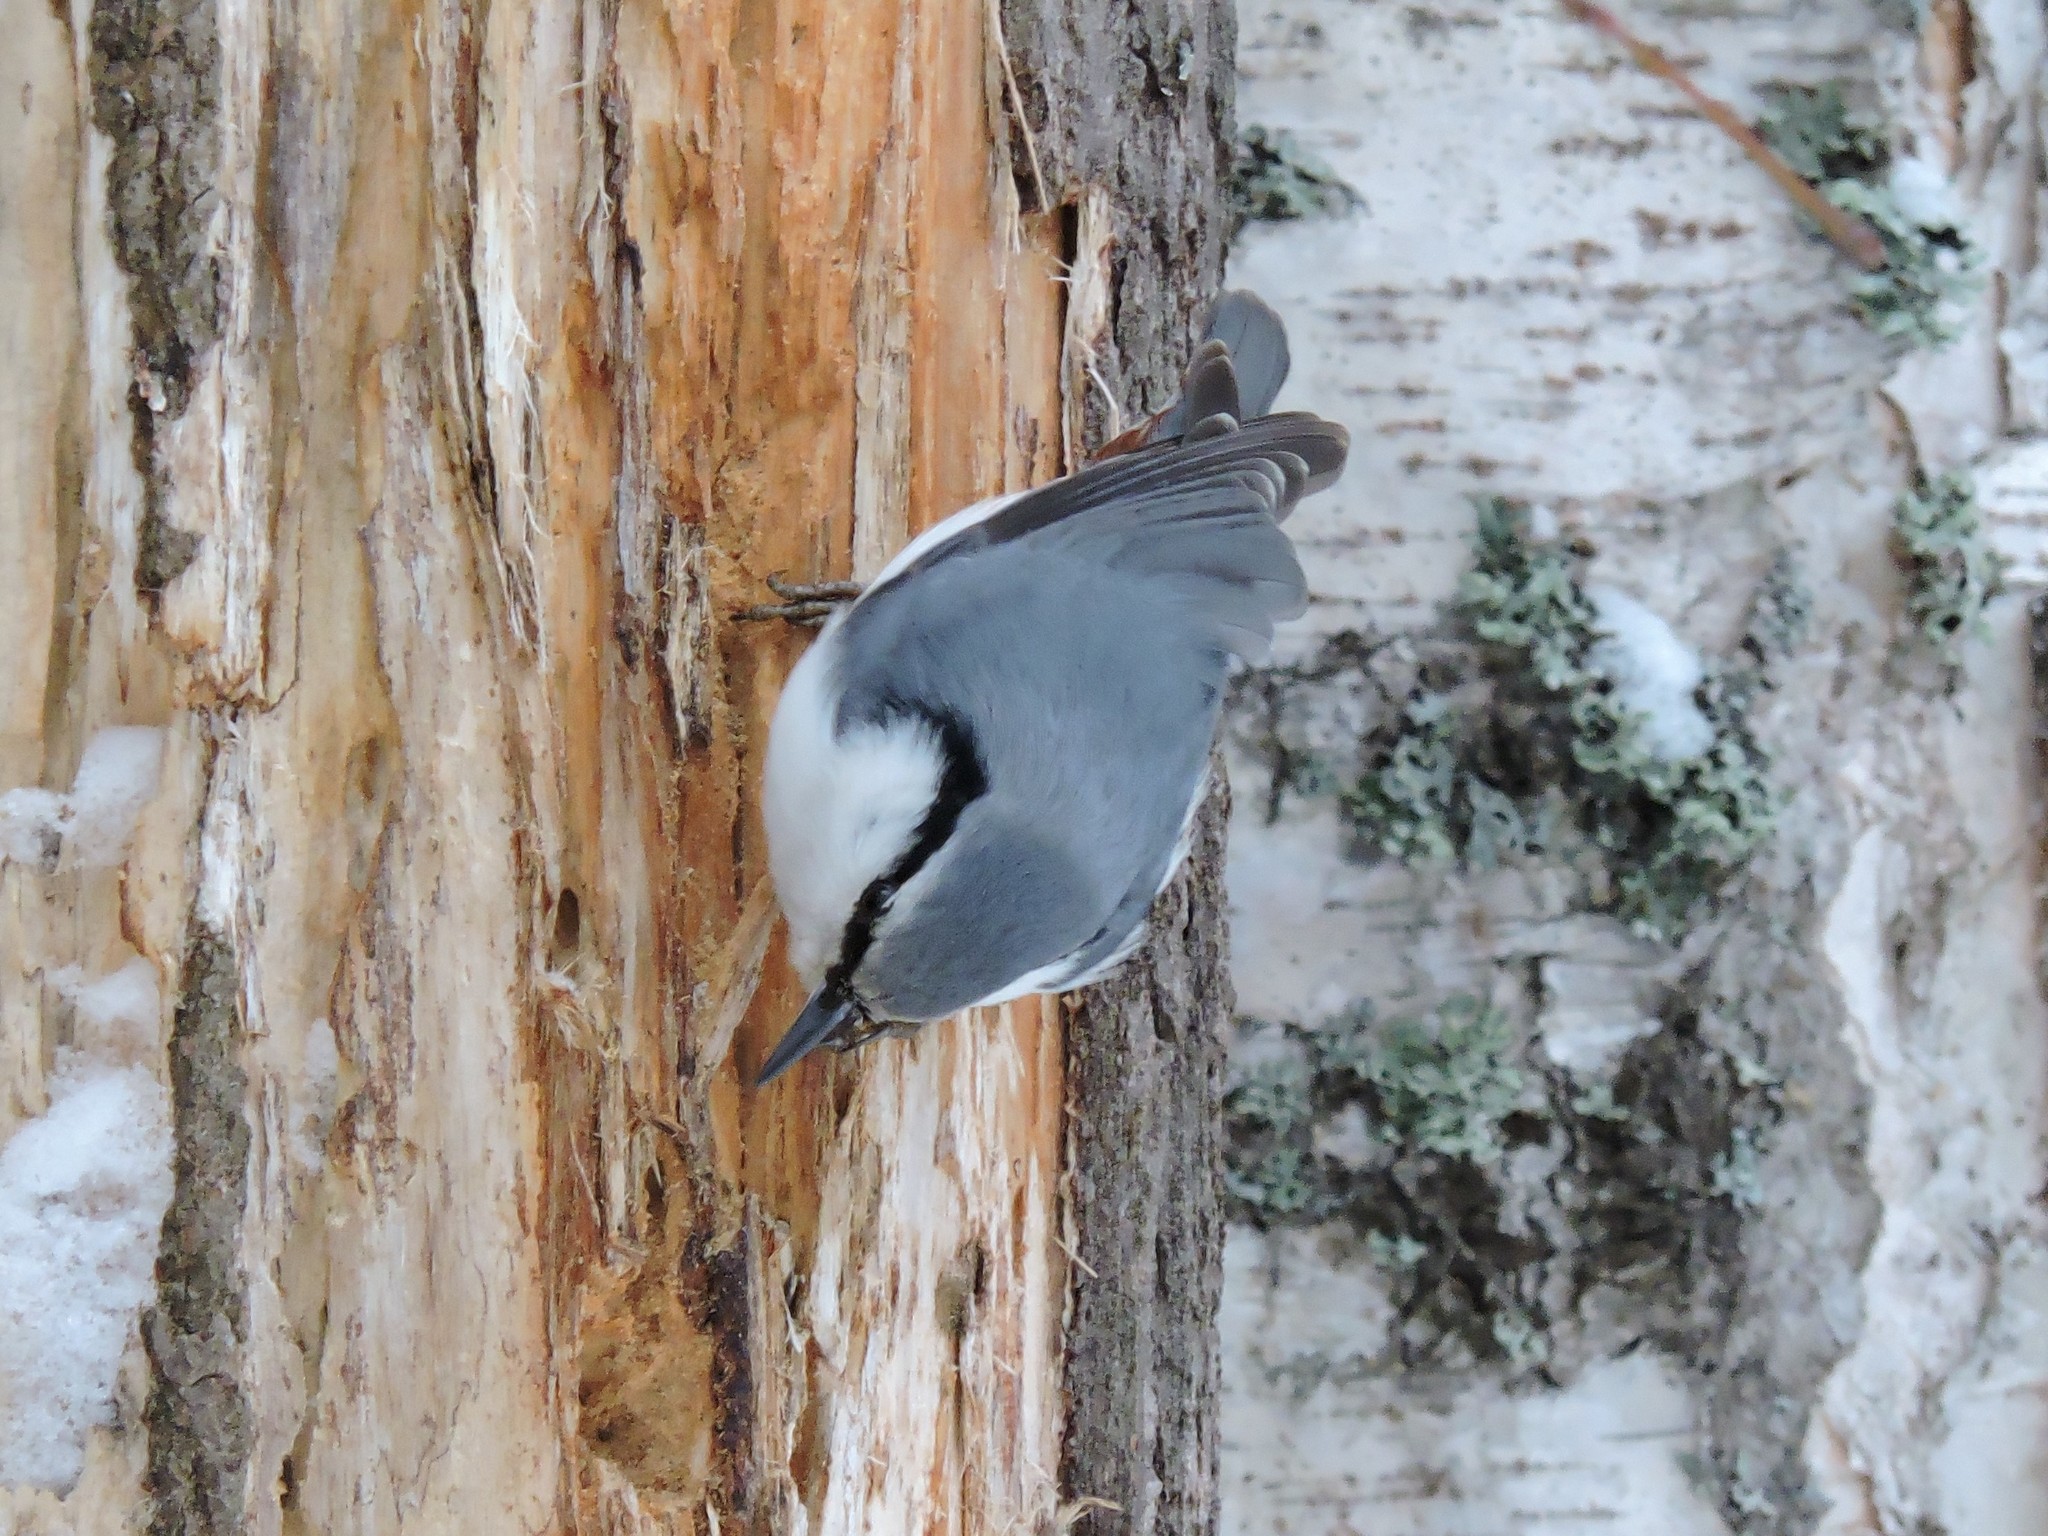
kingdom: Animalia
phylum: Chordata
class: Aves
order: Passeriformes
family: Sittidae
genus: Sitta
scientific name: Sitta europaea
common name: Eurasian nuthatch
